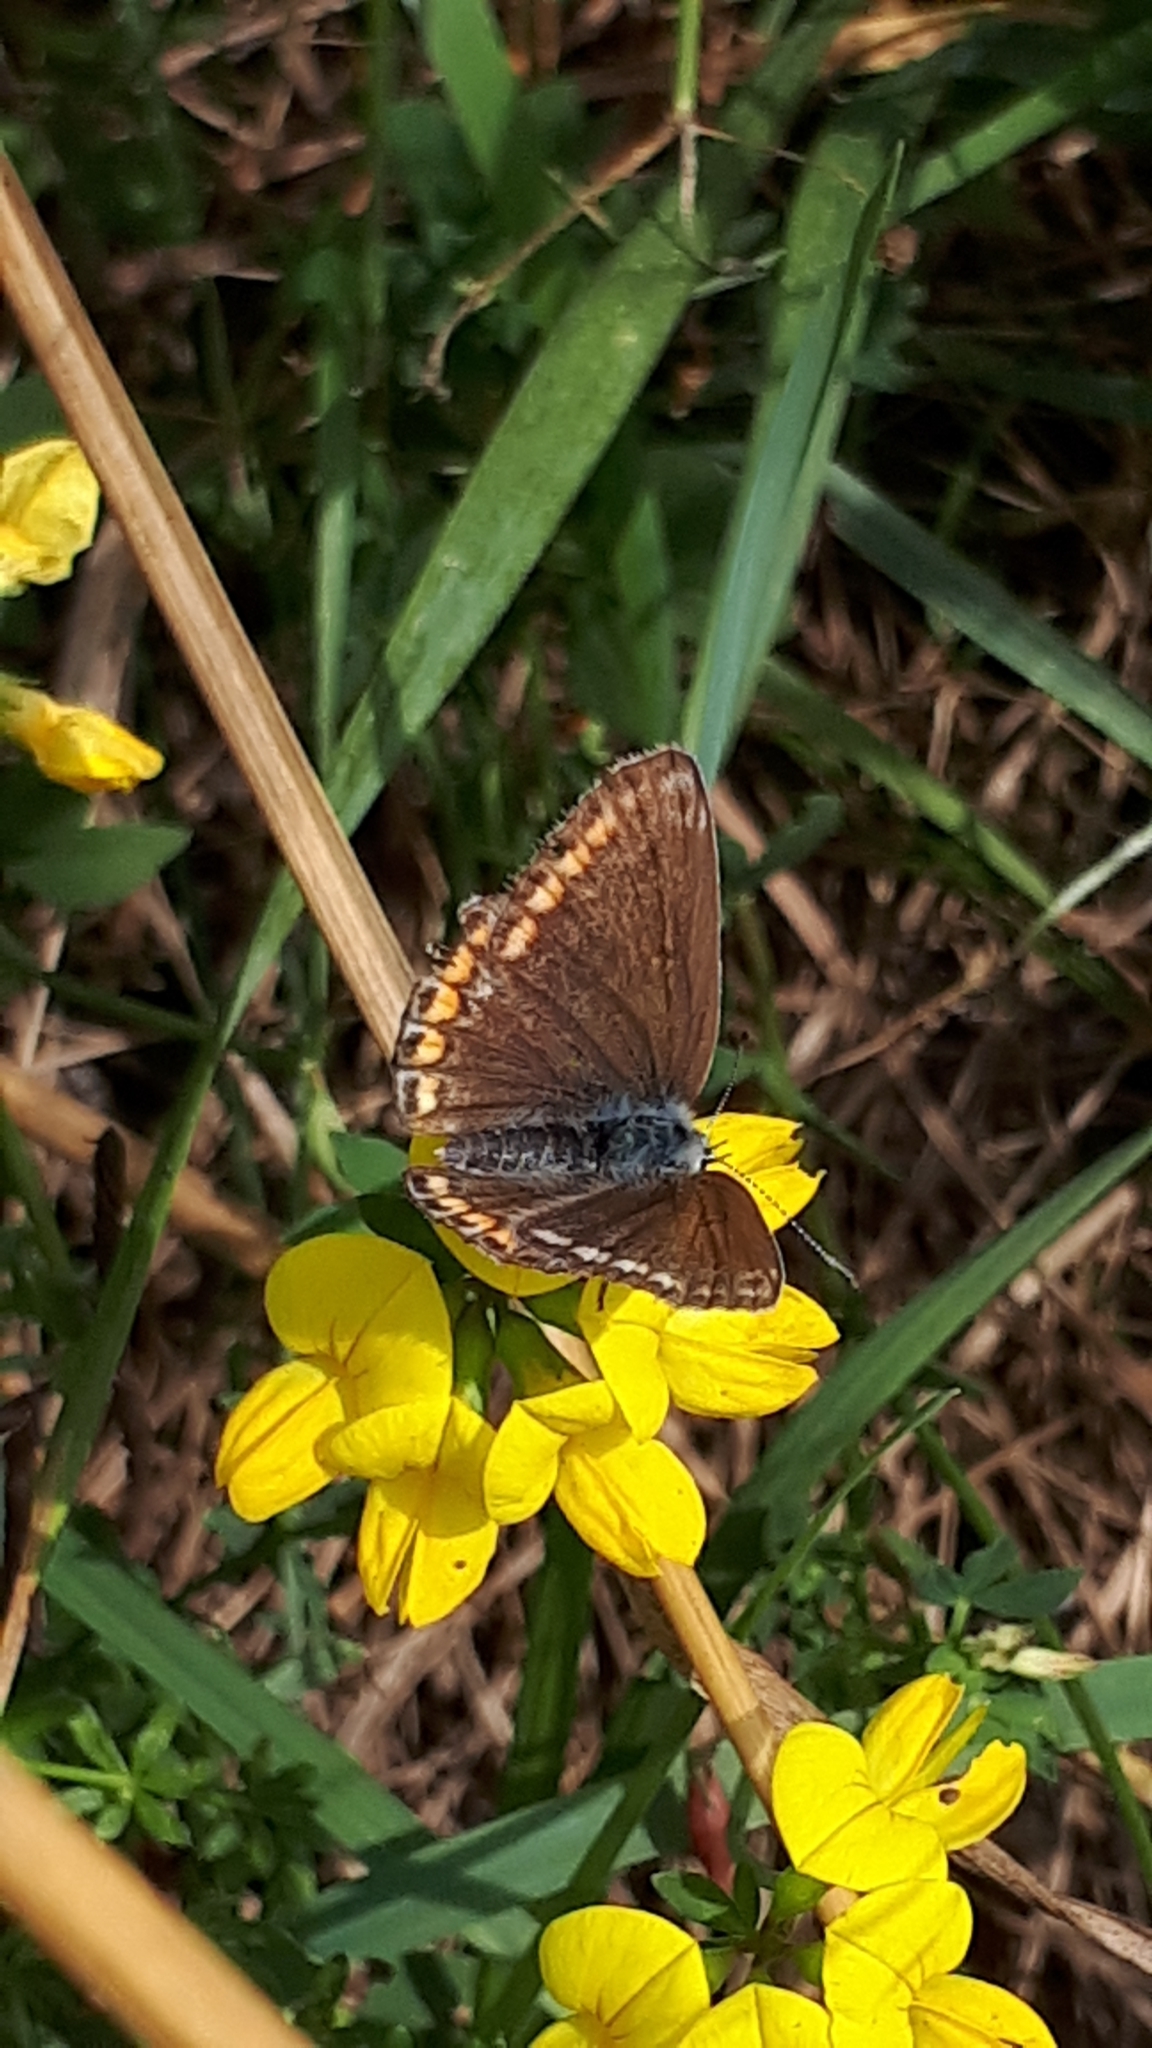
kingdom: Animalia
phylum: Arthropoda
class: Insecta
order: Lepidoptera
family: Lycaenidae
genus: Polyommatus
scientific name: Polyommatus icarus
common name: Common blue
